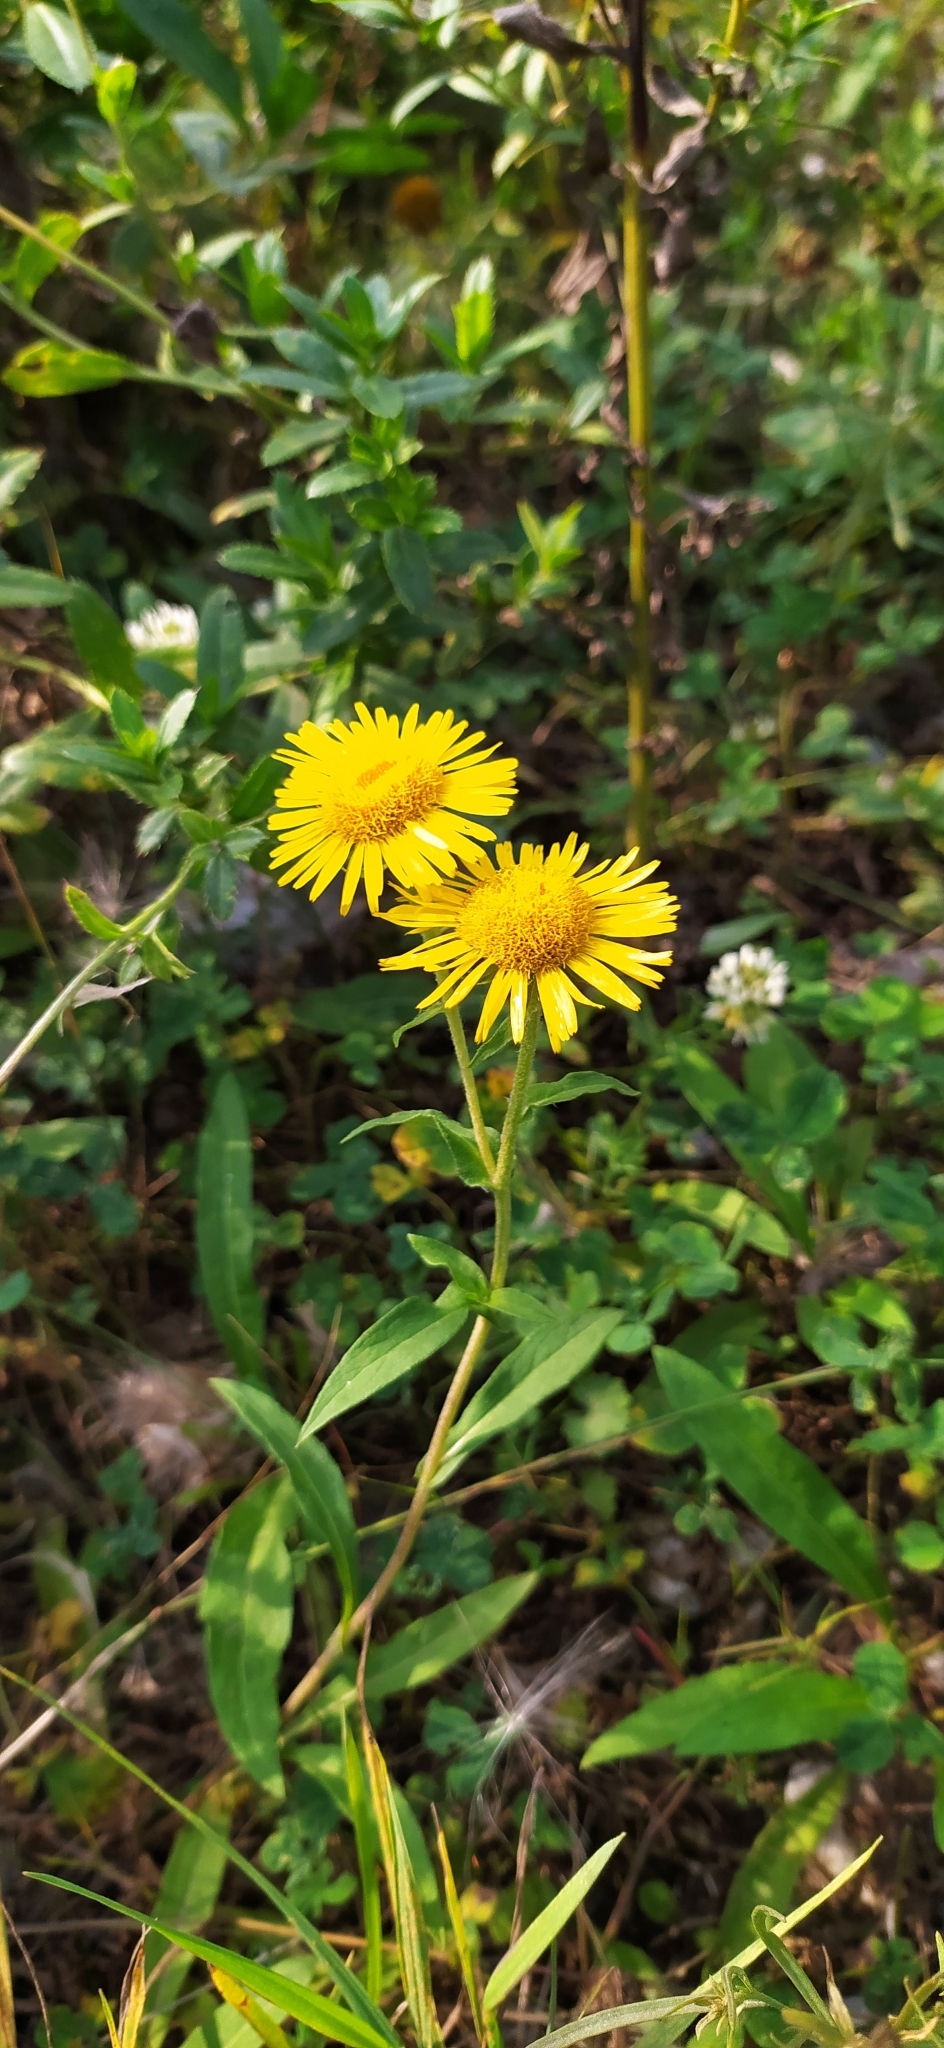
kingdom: Plantae
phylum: Tracheophyta
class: Magnoliopsida
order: Asterales
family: Asteraceae
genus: Pentanema
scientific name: Pentanema britannicum
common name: British elecampane
